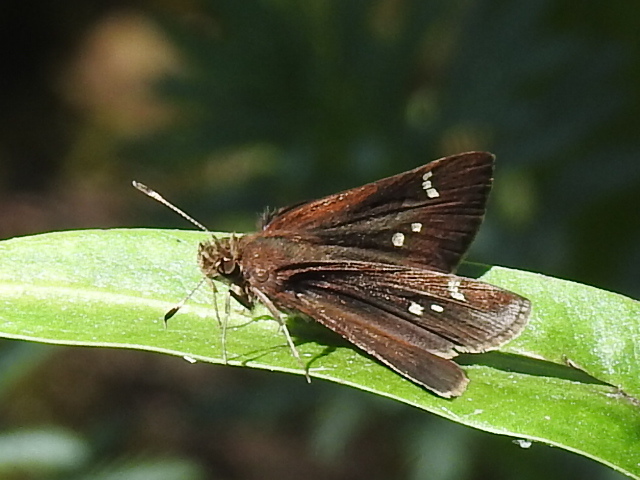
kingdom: Animalia
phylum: Arthropoda
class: Insecta
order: Lepidoptera
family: Hesperiidae
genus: Lerema
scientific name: Lerema accius
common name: Clouded skipper
